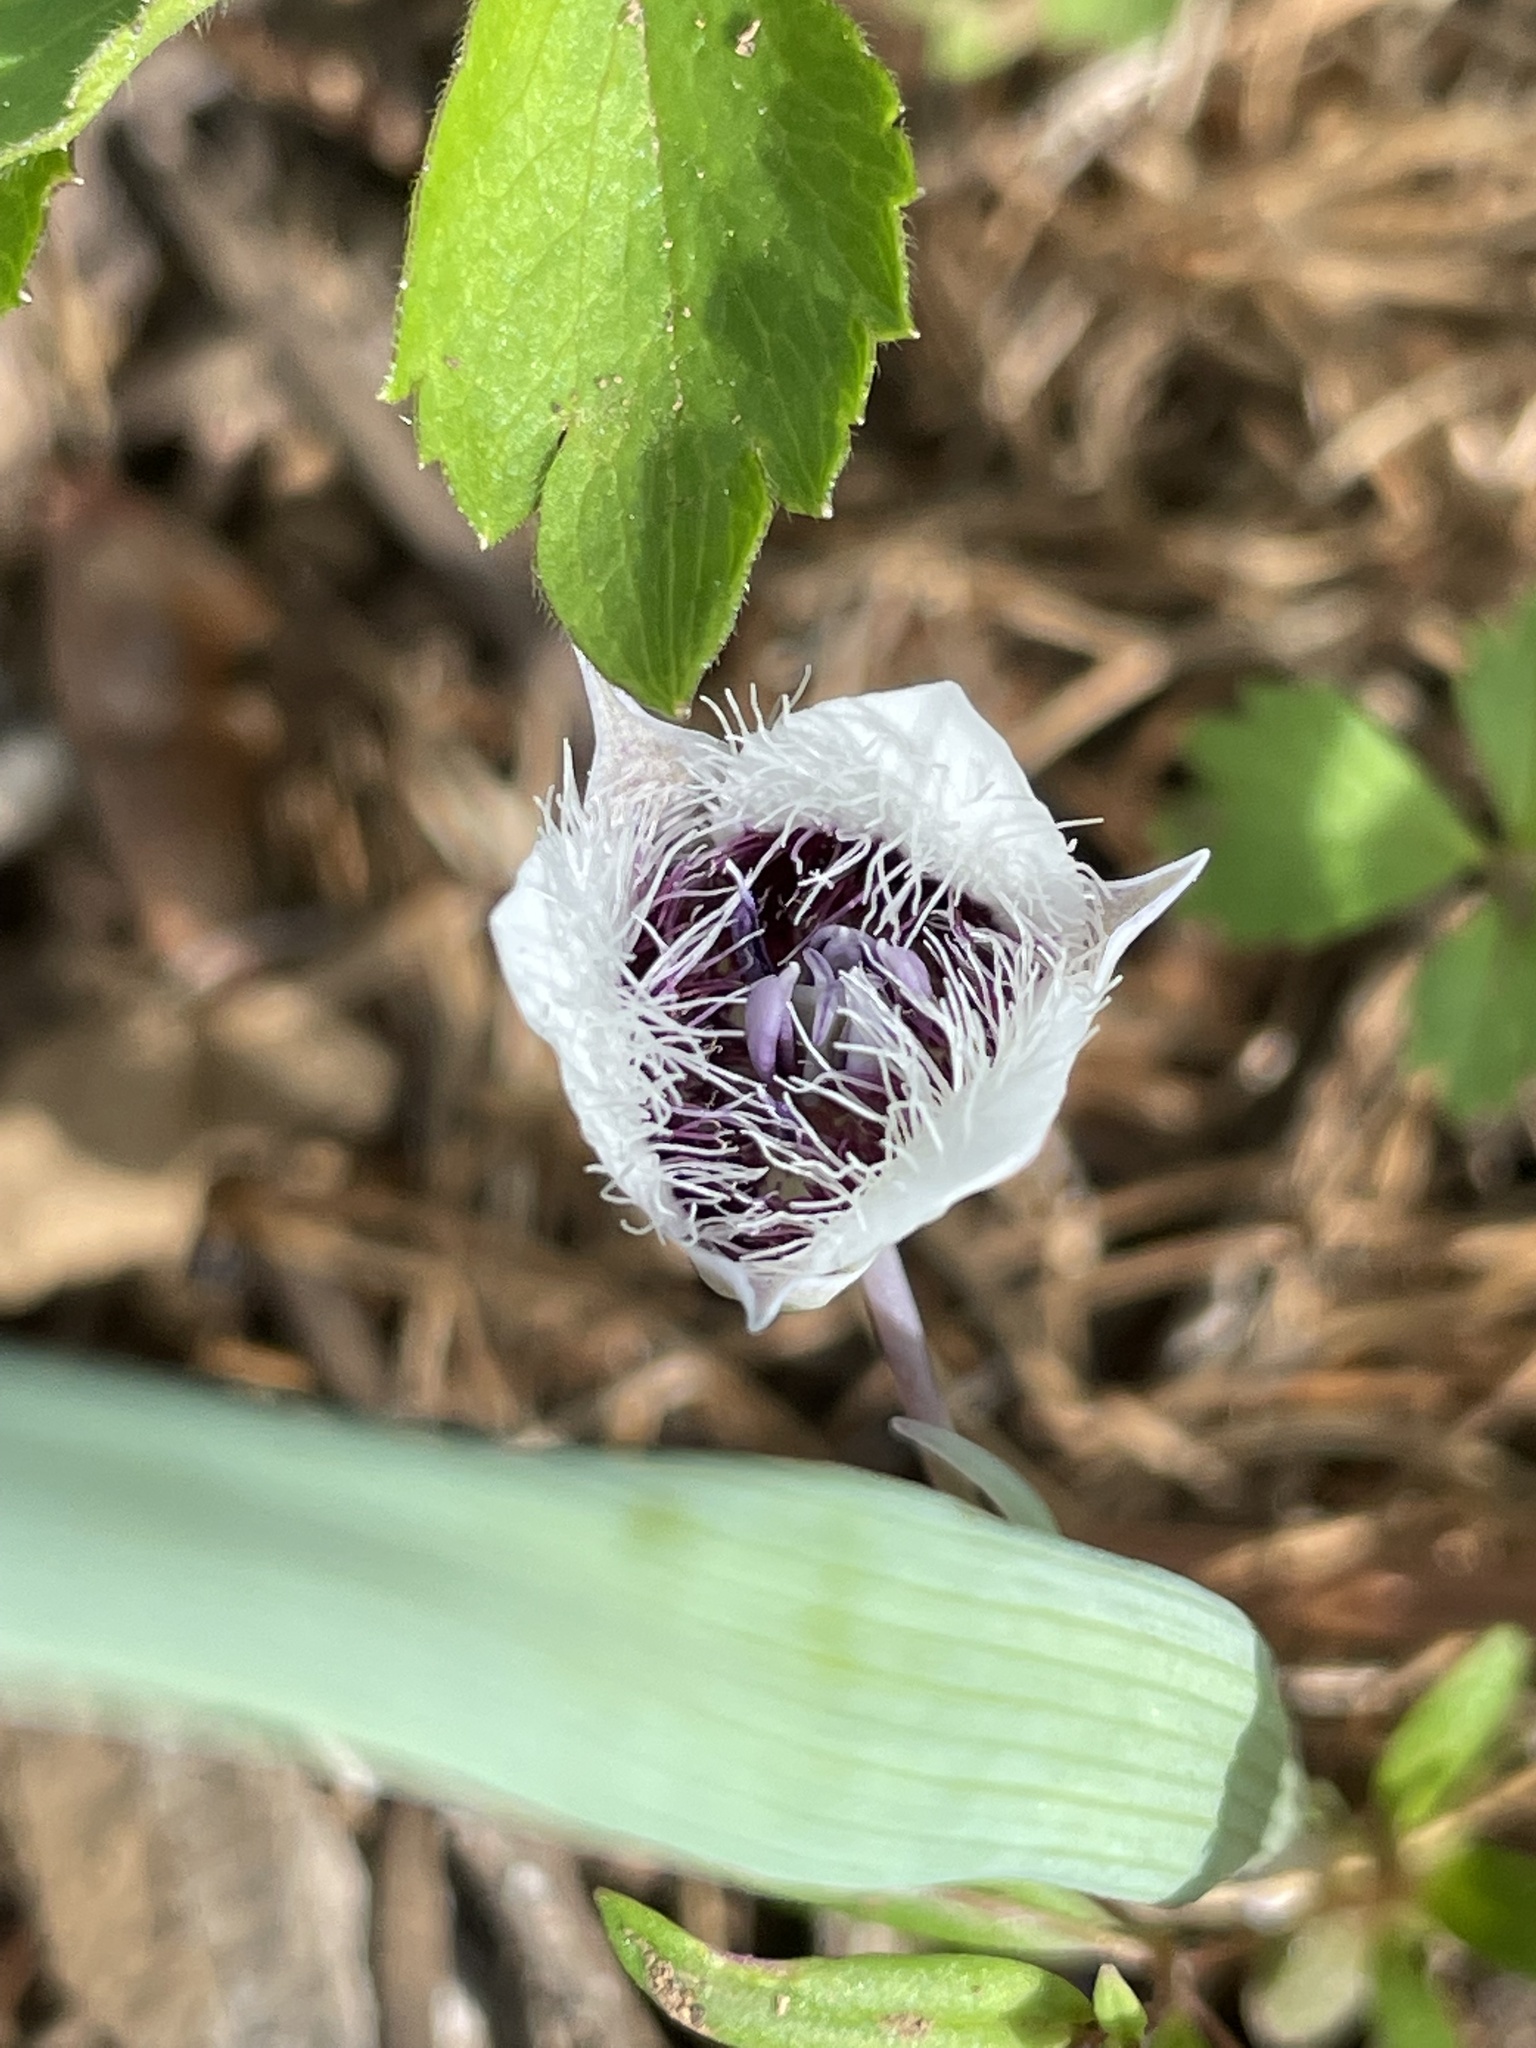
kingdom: Plantae
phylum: Tracheophyta
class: Liliopsida
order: Liliales
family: Liliaceae
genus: Calochortus
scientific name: Calochortus elegans
